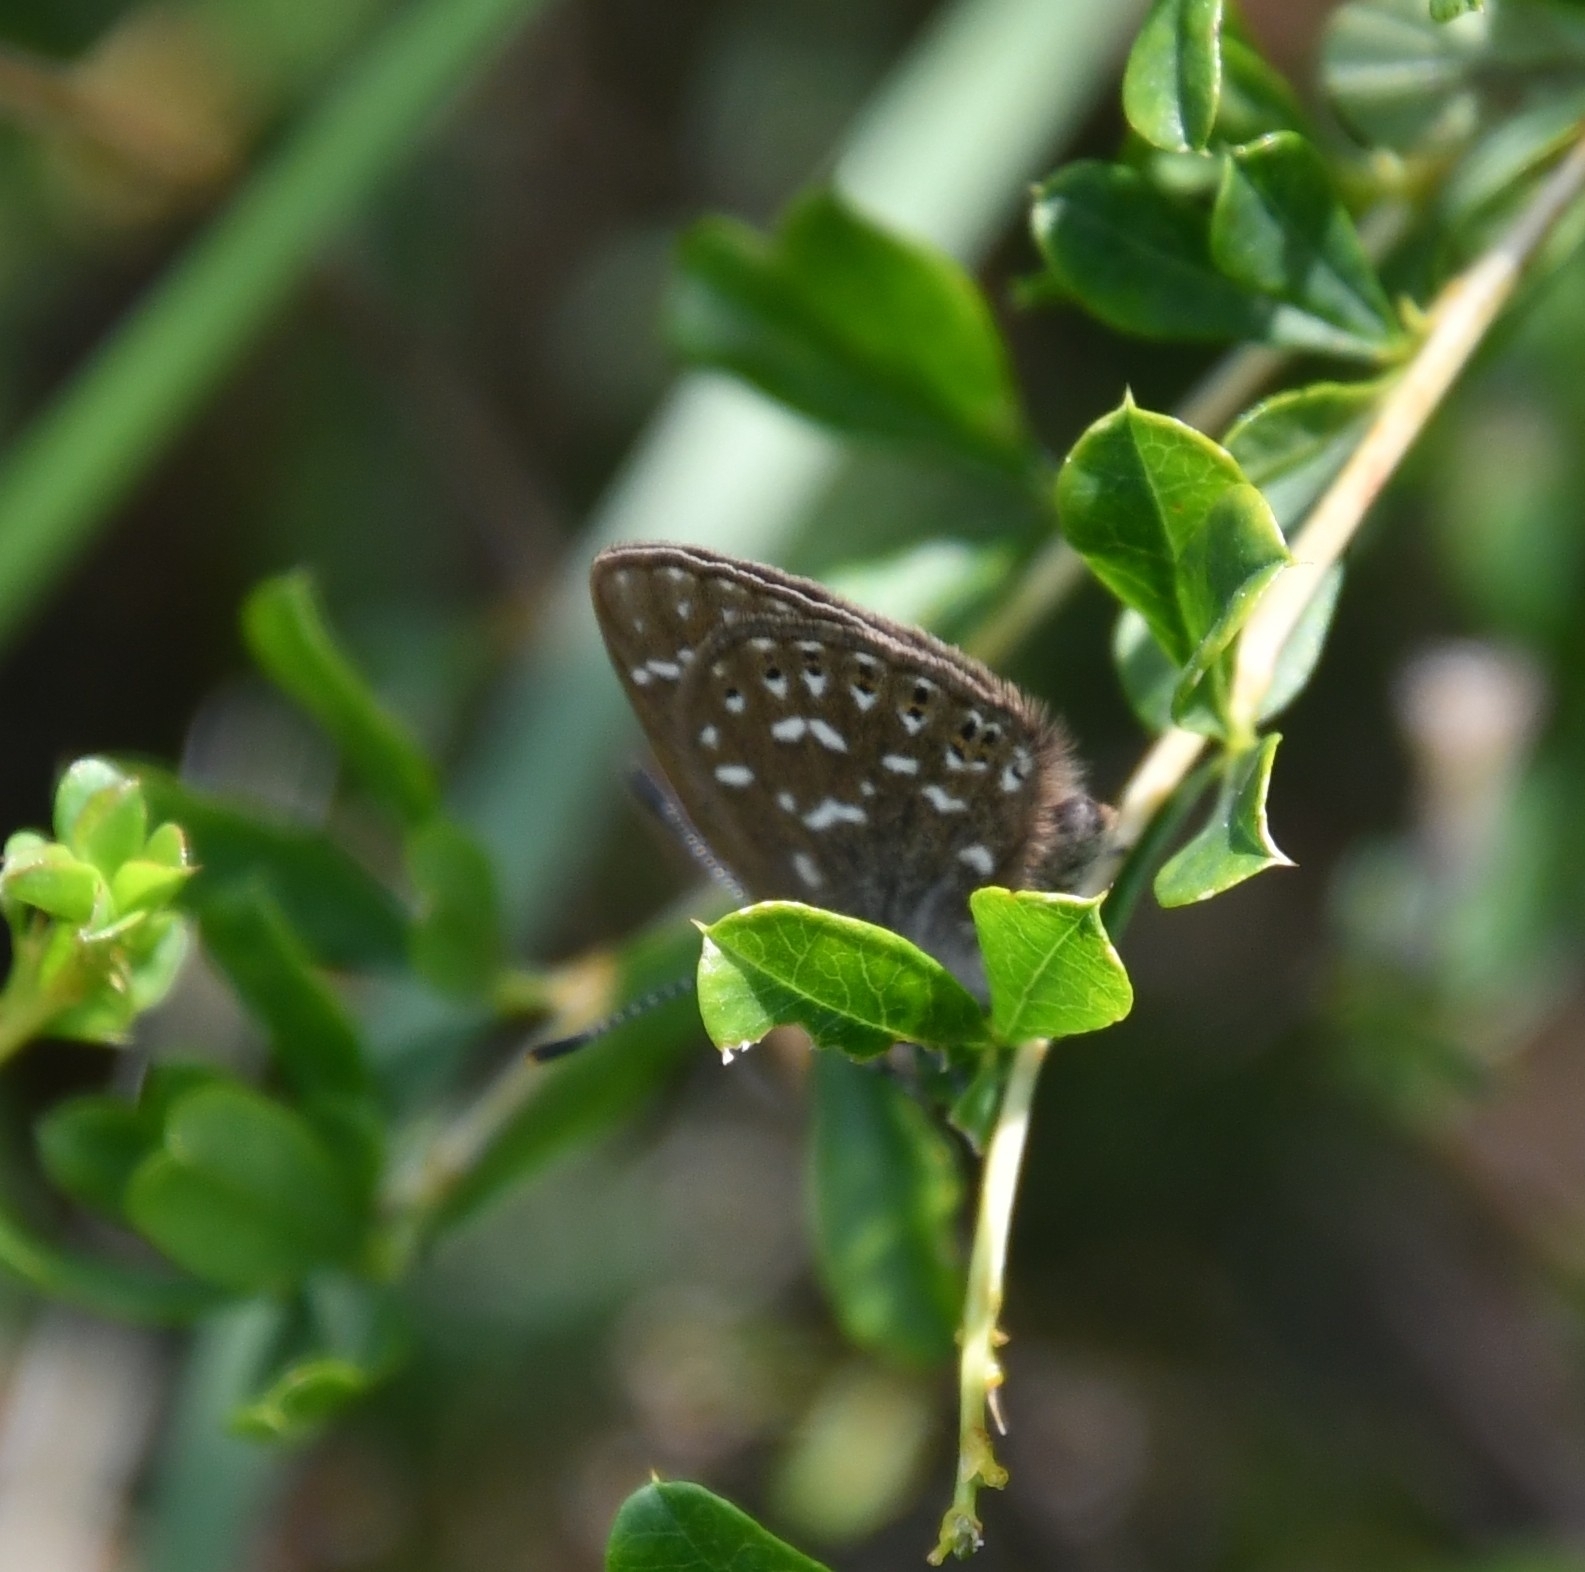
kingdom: Animalia
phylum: Arthropoda
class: Insecta
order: Lepidoptera
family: Lycaenidae
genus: Thecla
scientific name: Thecla rhymnus
